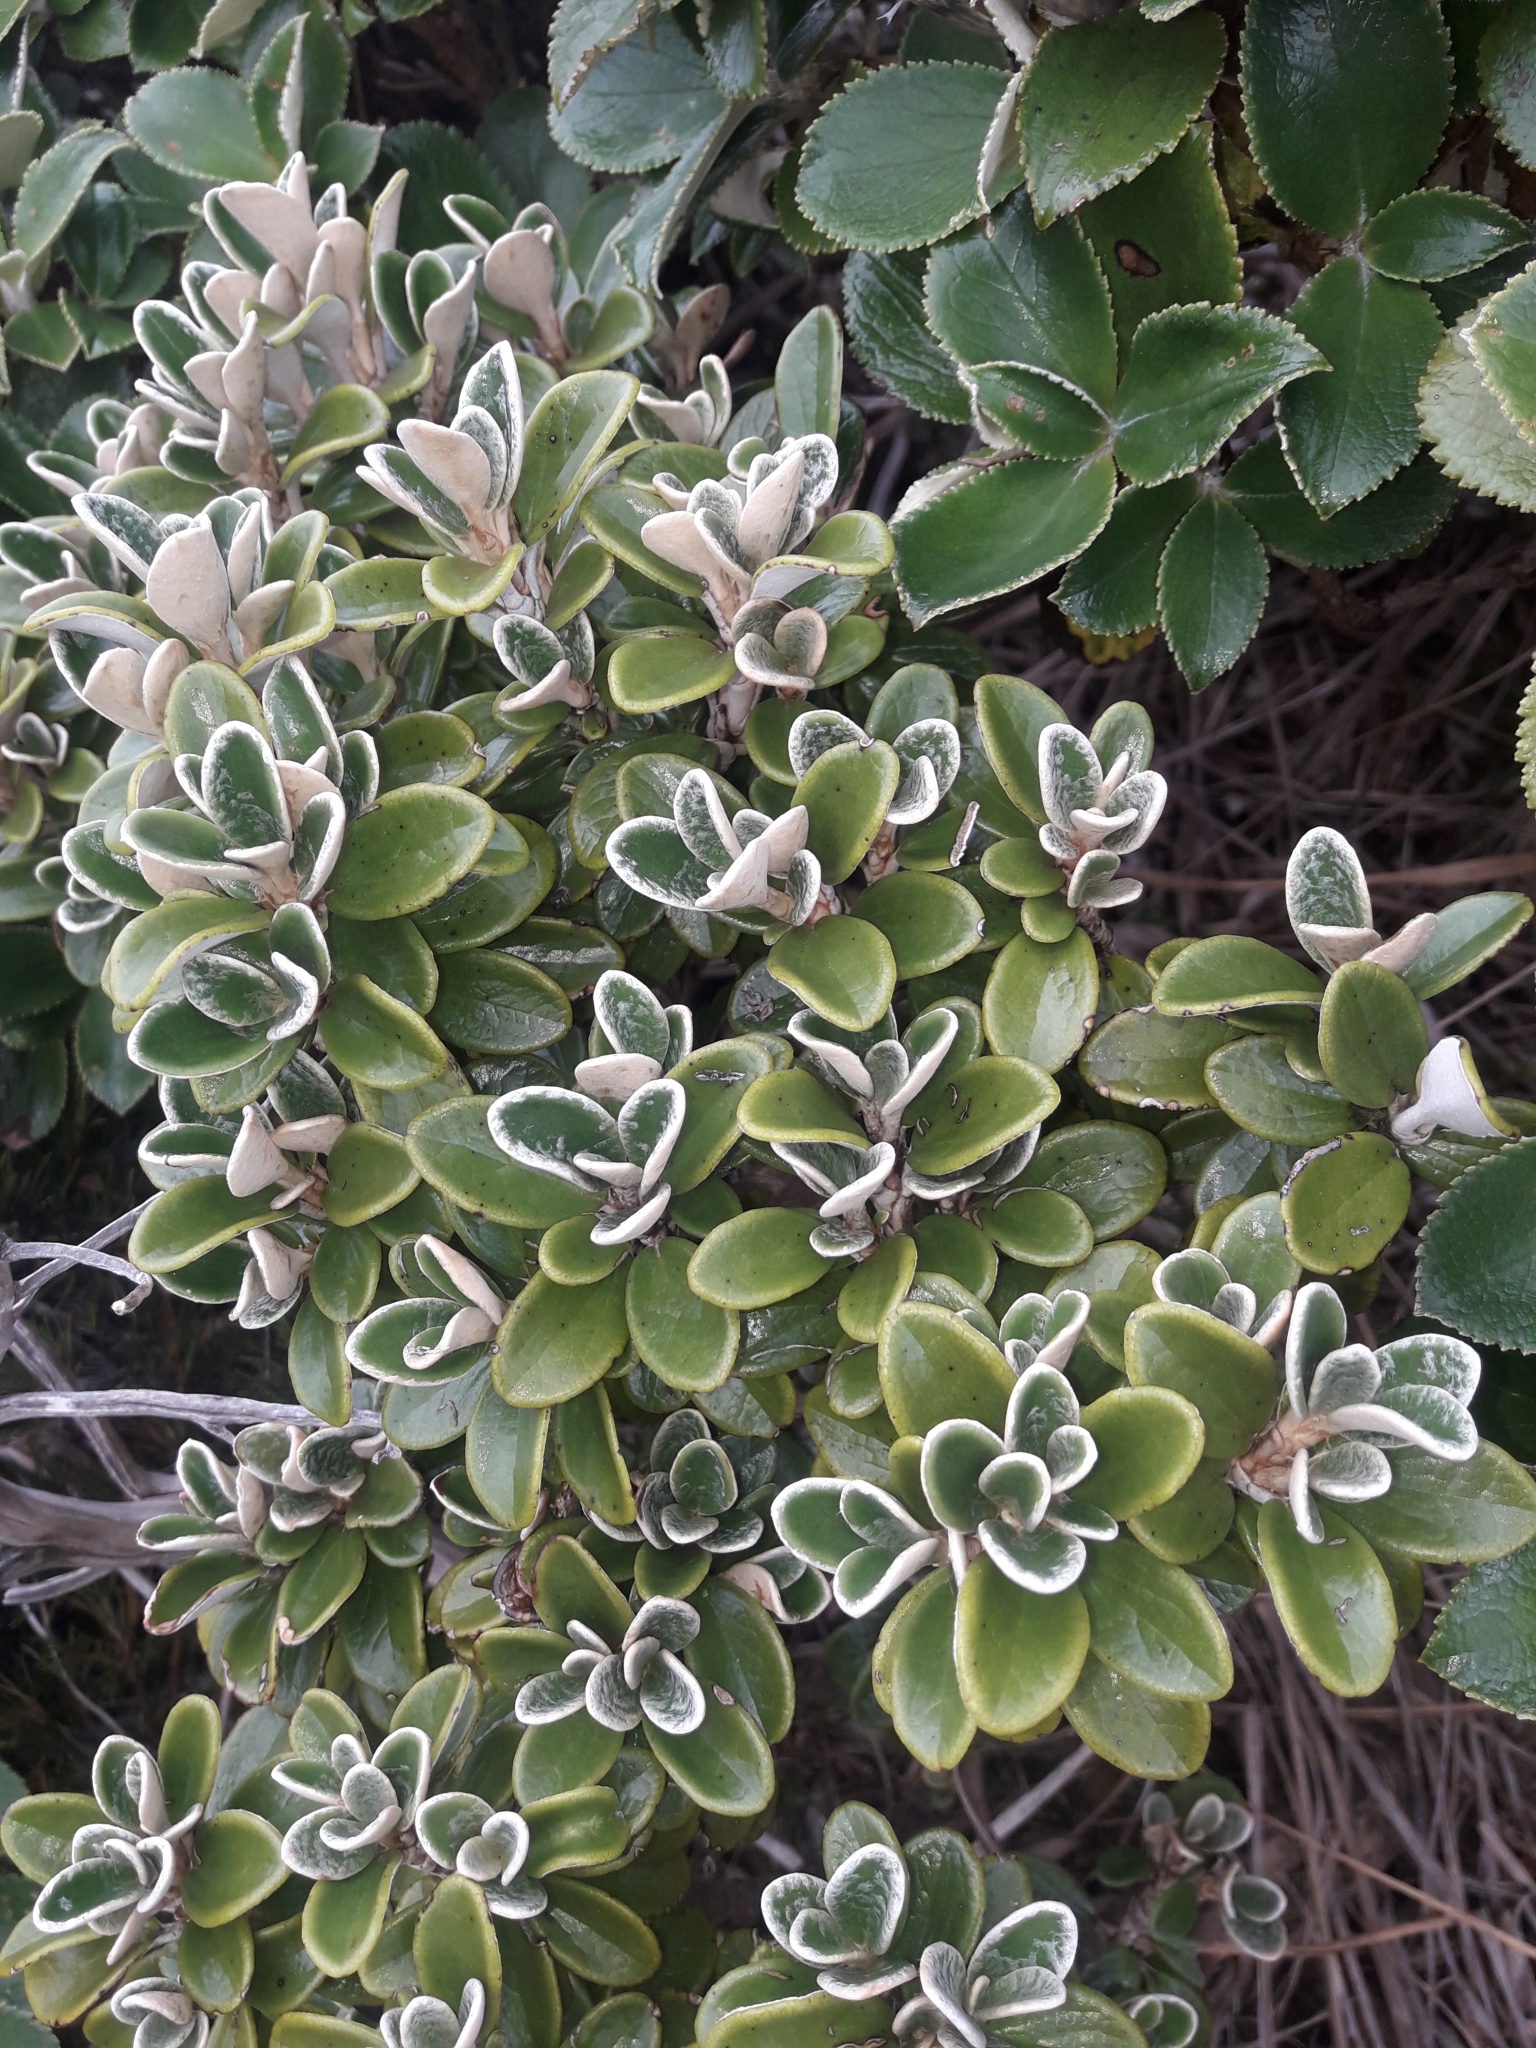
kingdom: Plantae
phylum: Tracheophyta
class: Magnoliopsida
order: Asterales
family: Asteraceae
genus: Brachyglottis
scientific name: Brachyglottis bidwillii
